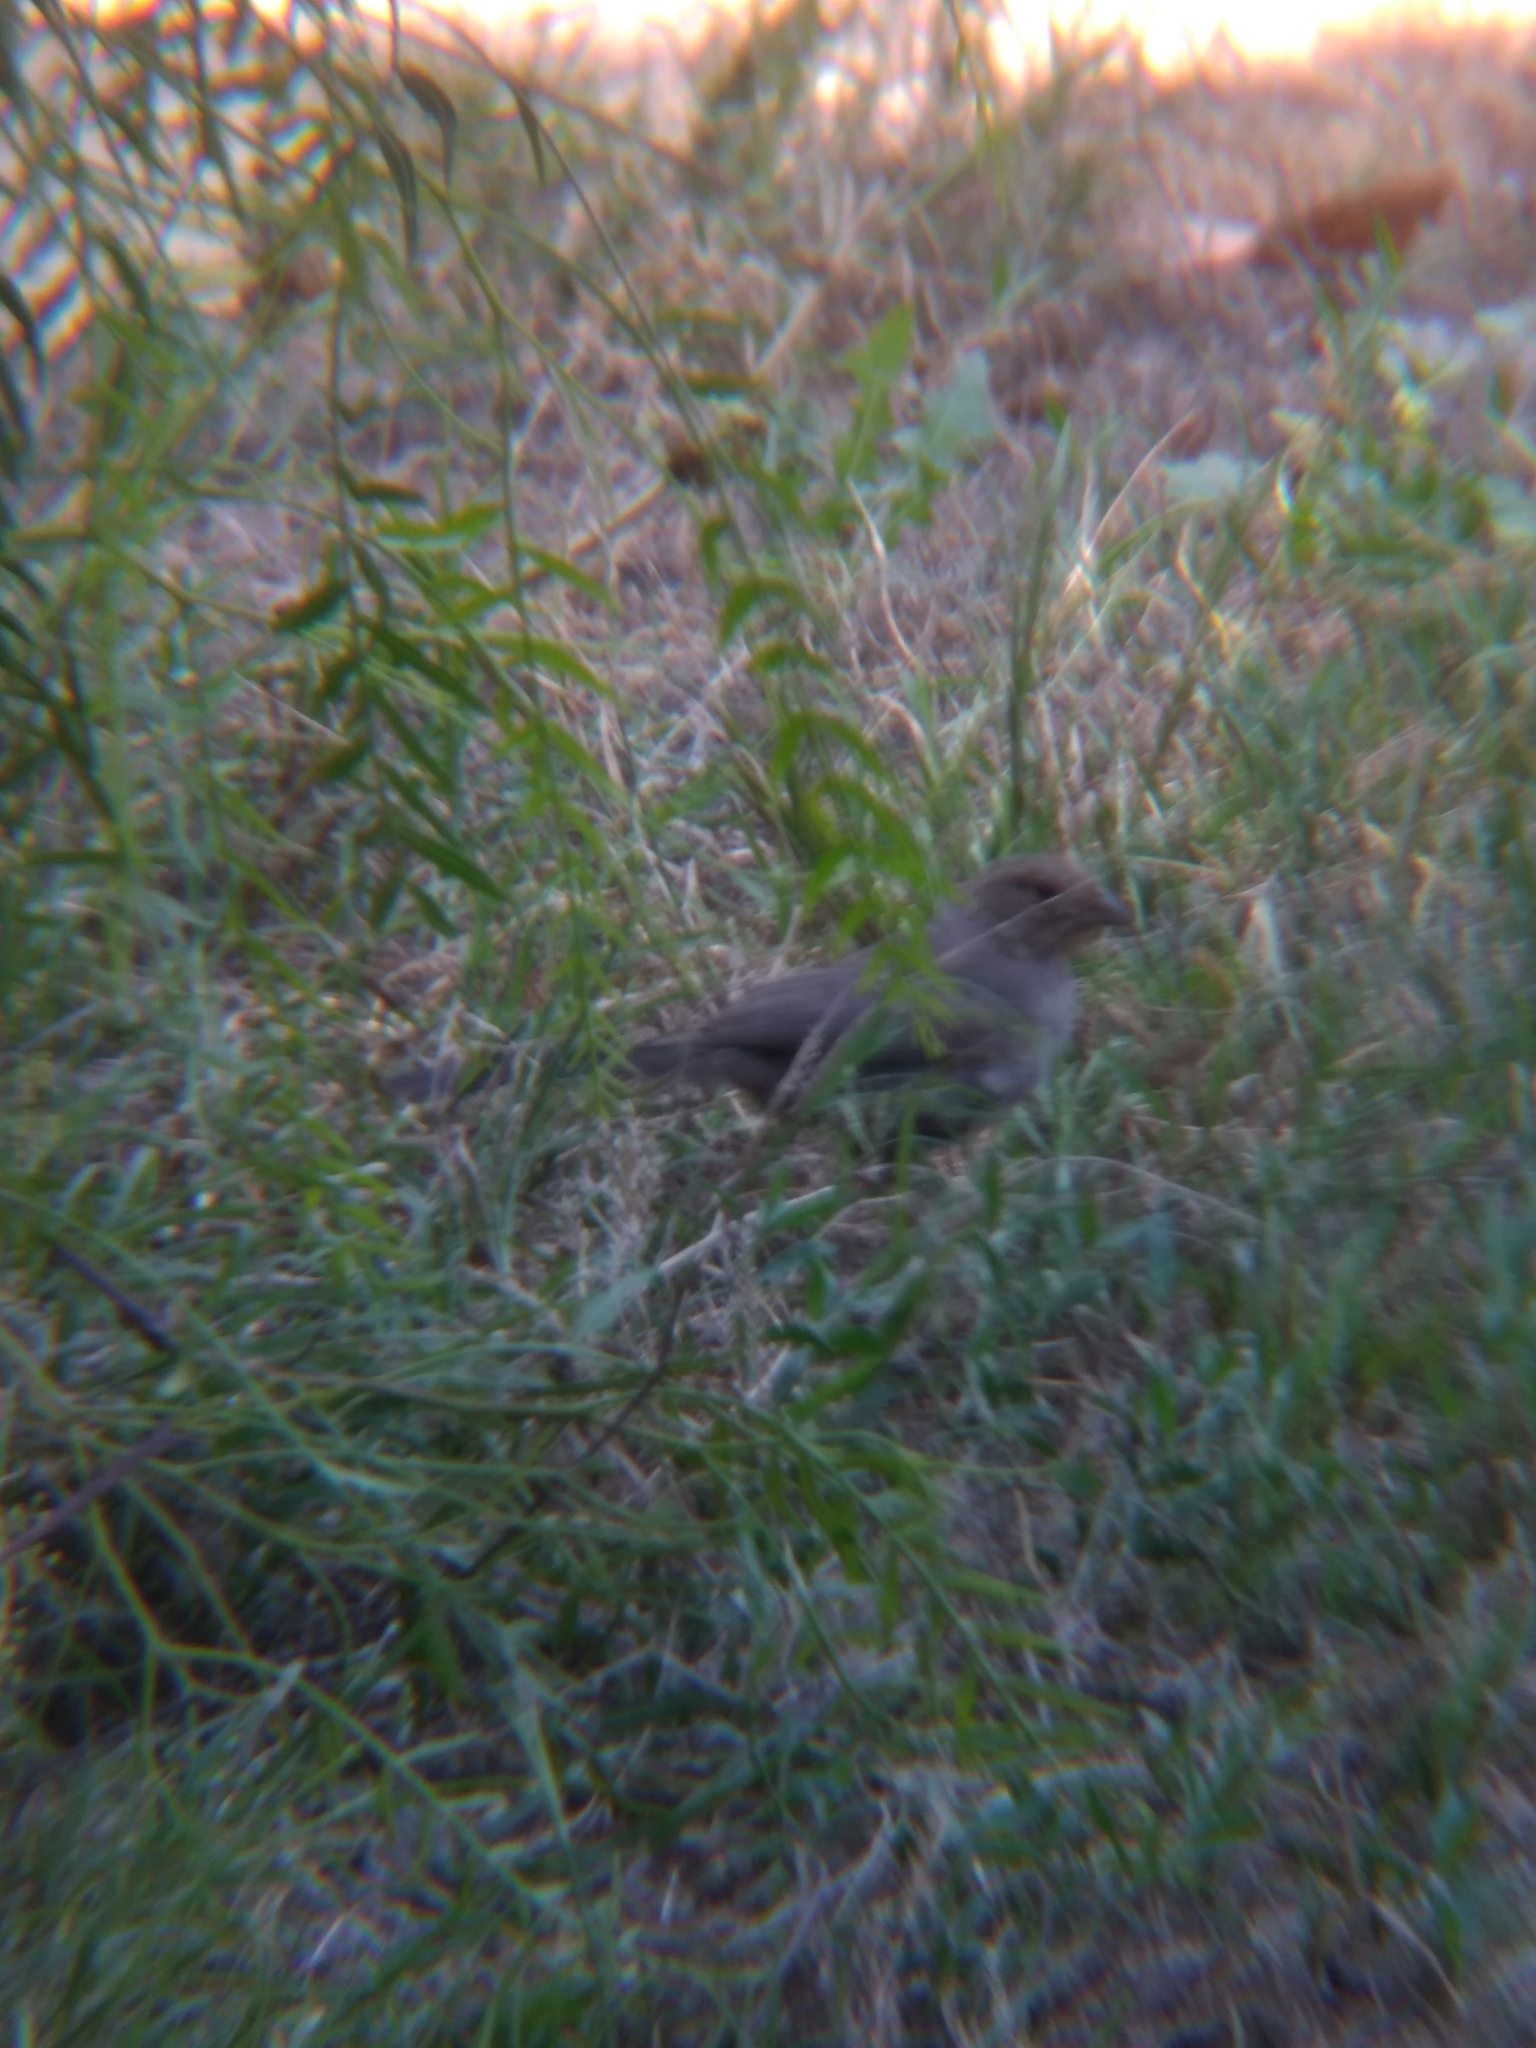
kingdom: Animalia
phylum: Chordata
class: Aves
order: Passeriformes
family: Passerellidae
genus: Melozone
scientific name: Melozone crissalis
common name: California towhee
